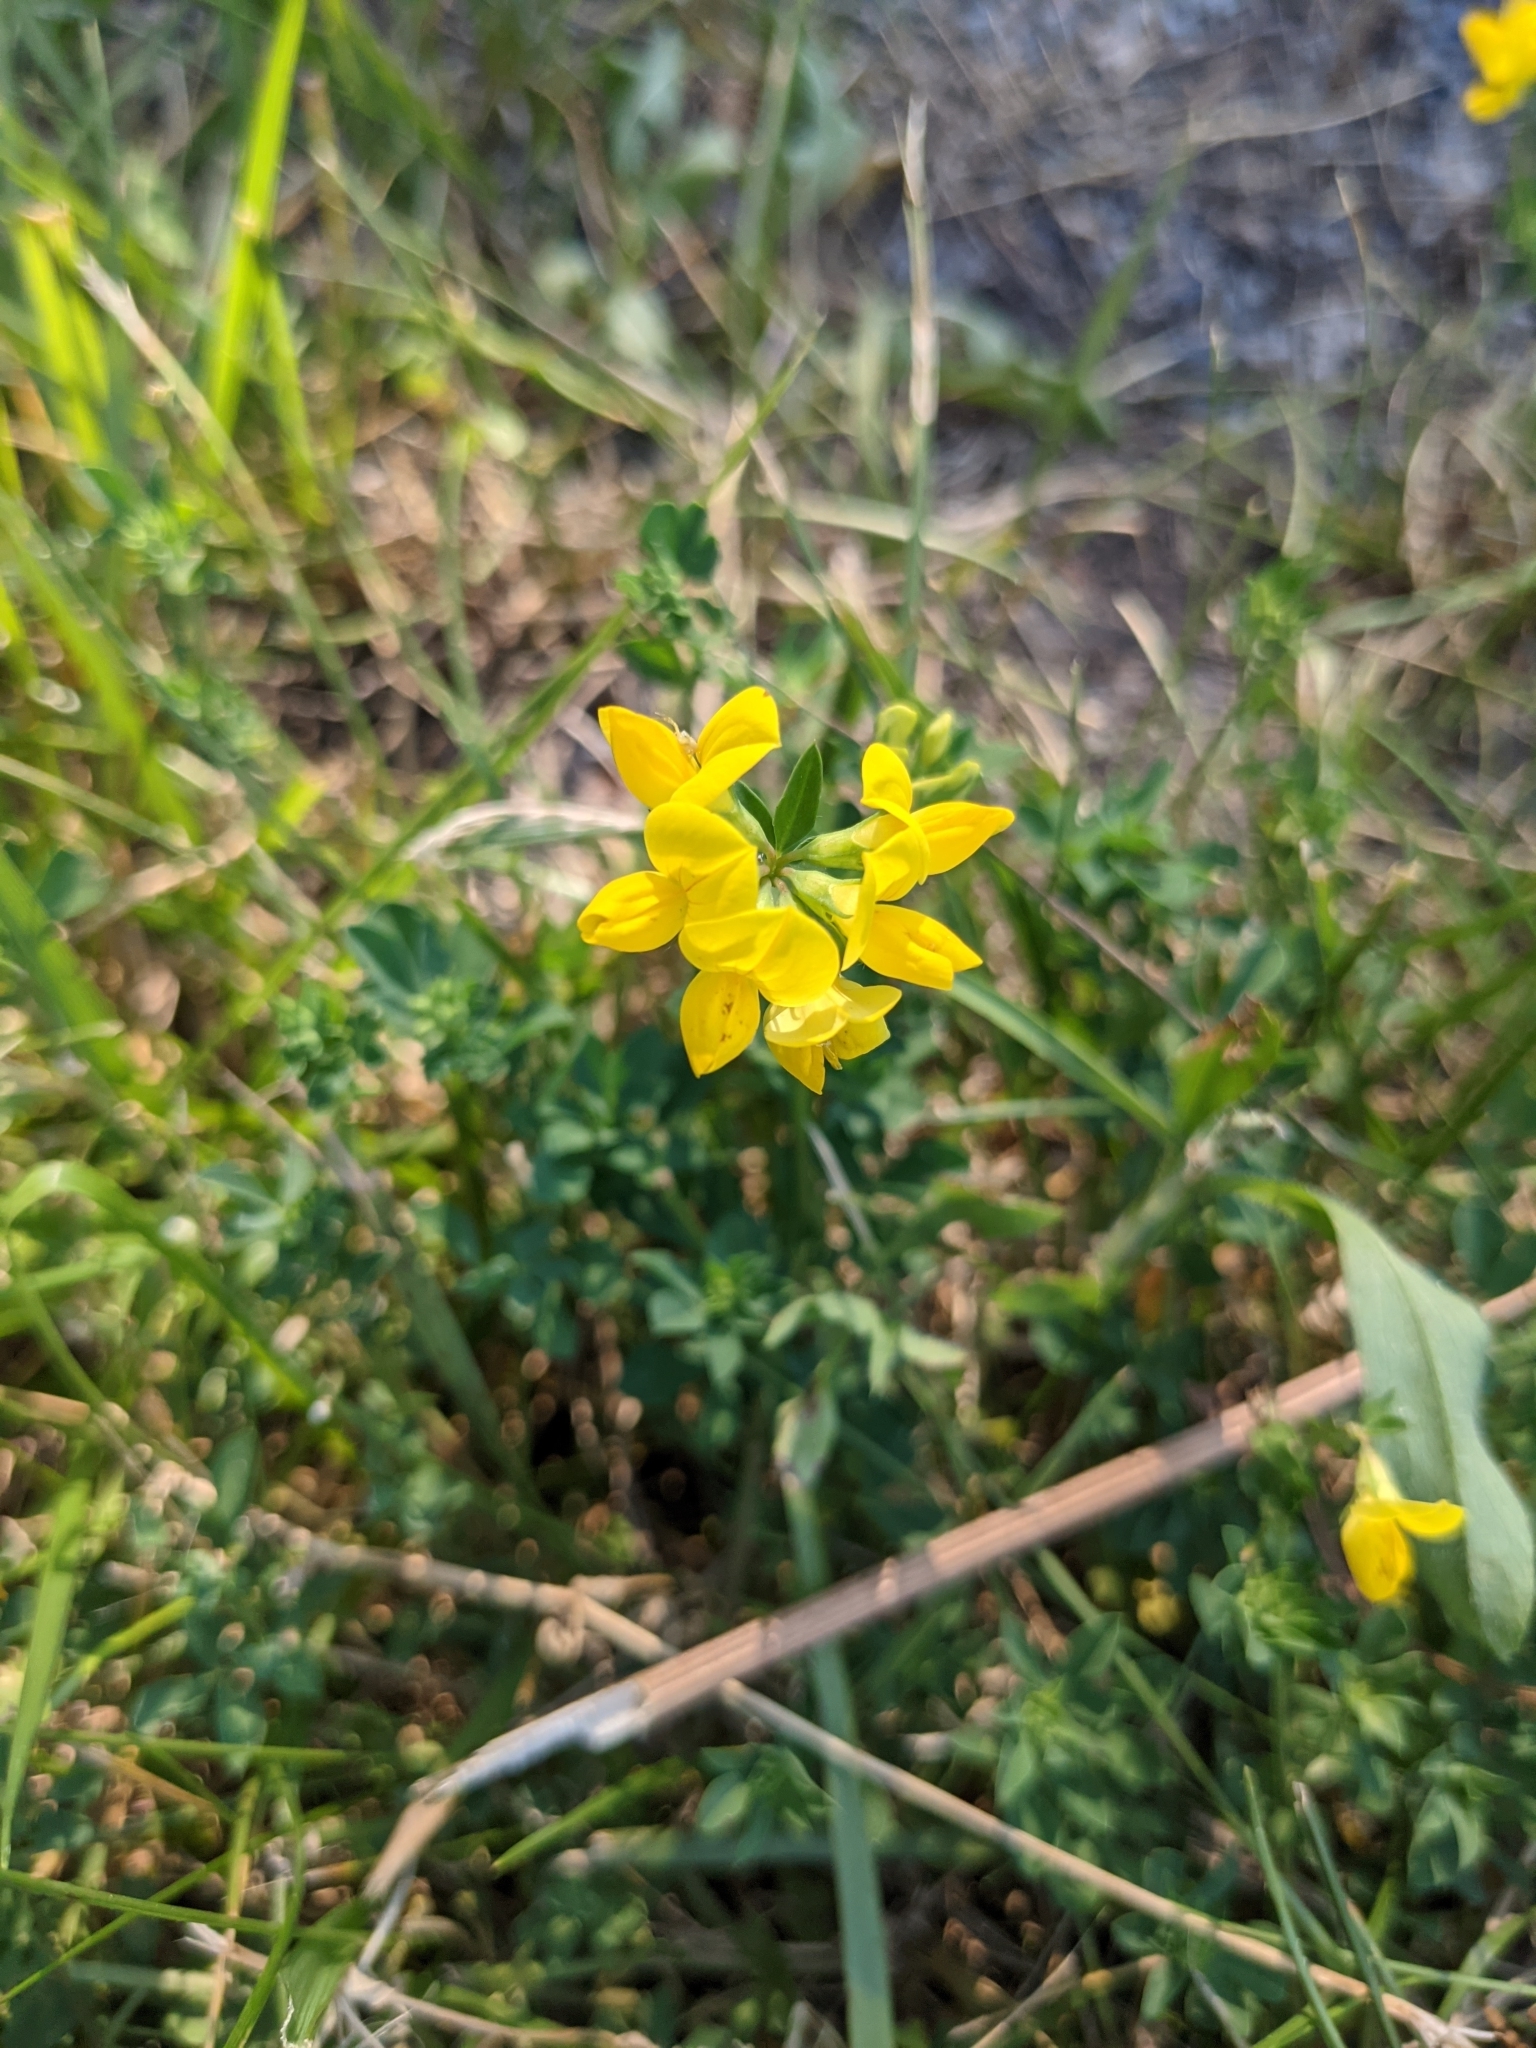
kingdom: Plantae
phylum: Tracheophyta
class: Magnoliopsida
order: Fabales
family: Fabaceae
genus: Lotus
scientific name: Lotus corniculatus
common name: Common bird's-foot-trefoil
